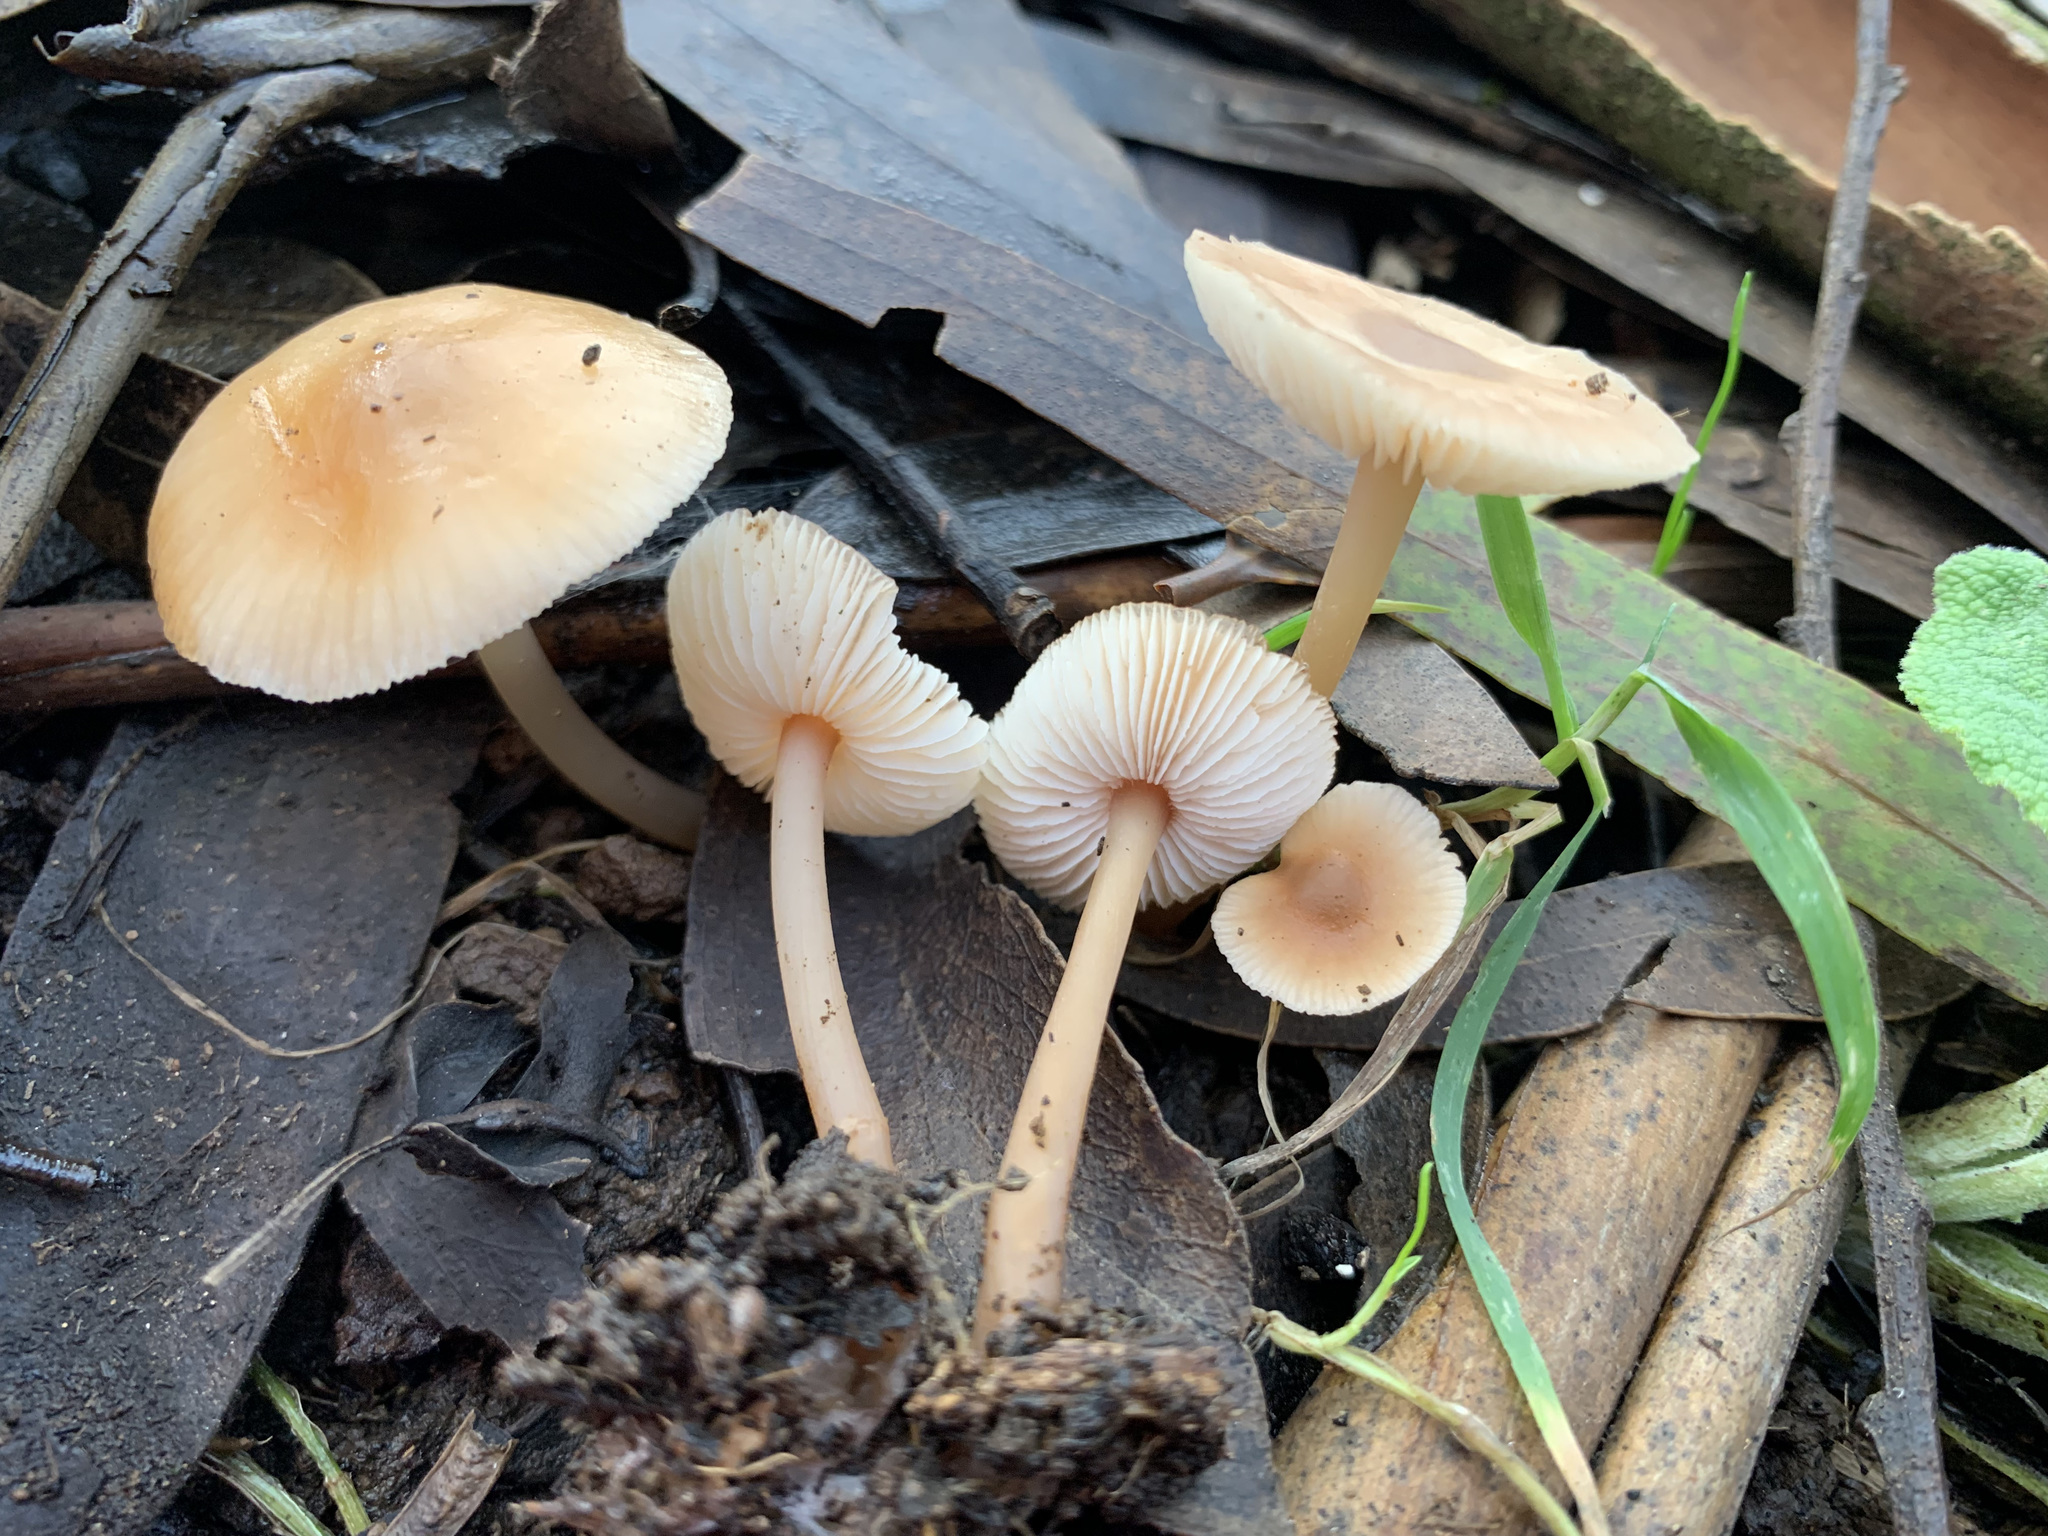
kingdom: Fungi
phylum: Basidiomycota
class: Agaricomycetes
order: Agaricales
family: Omphalotaceae
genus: Rhodocollybia
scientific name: Rhodocollybia incarnata
